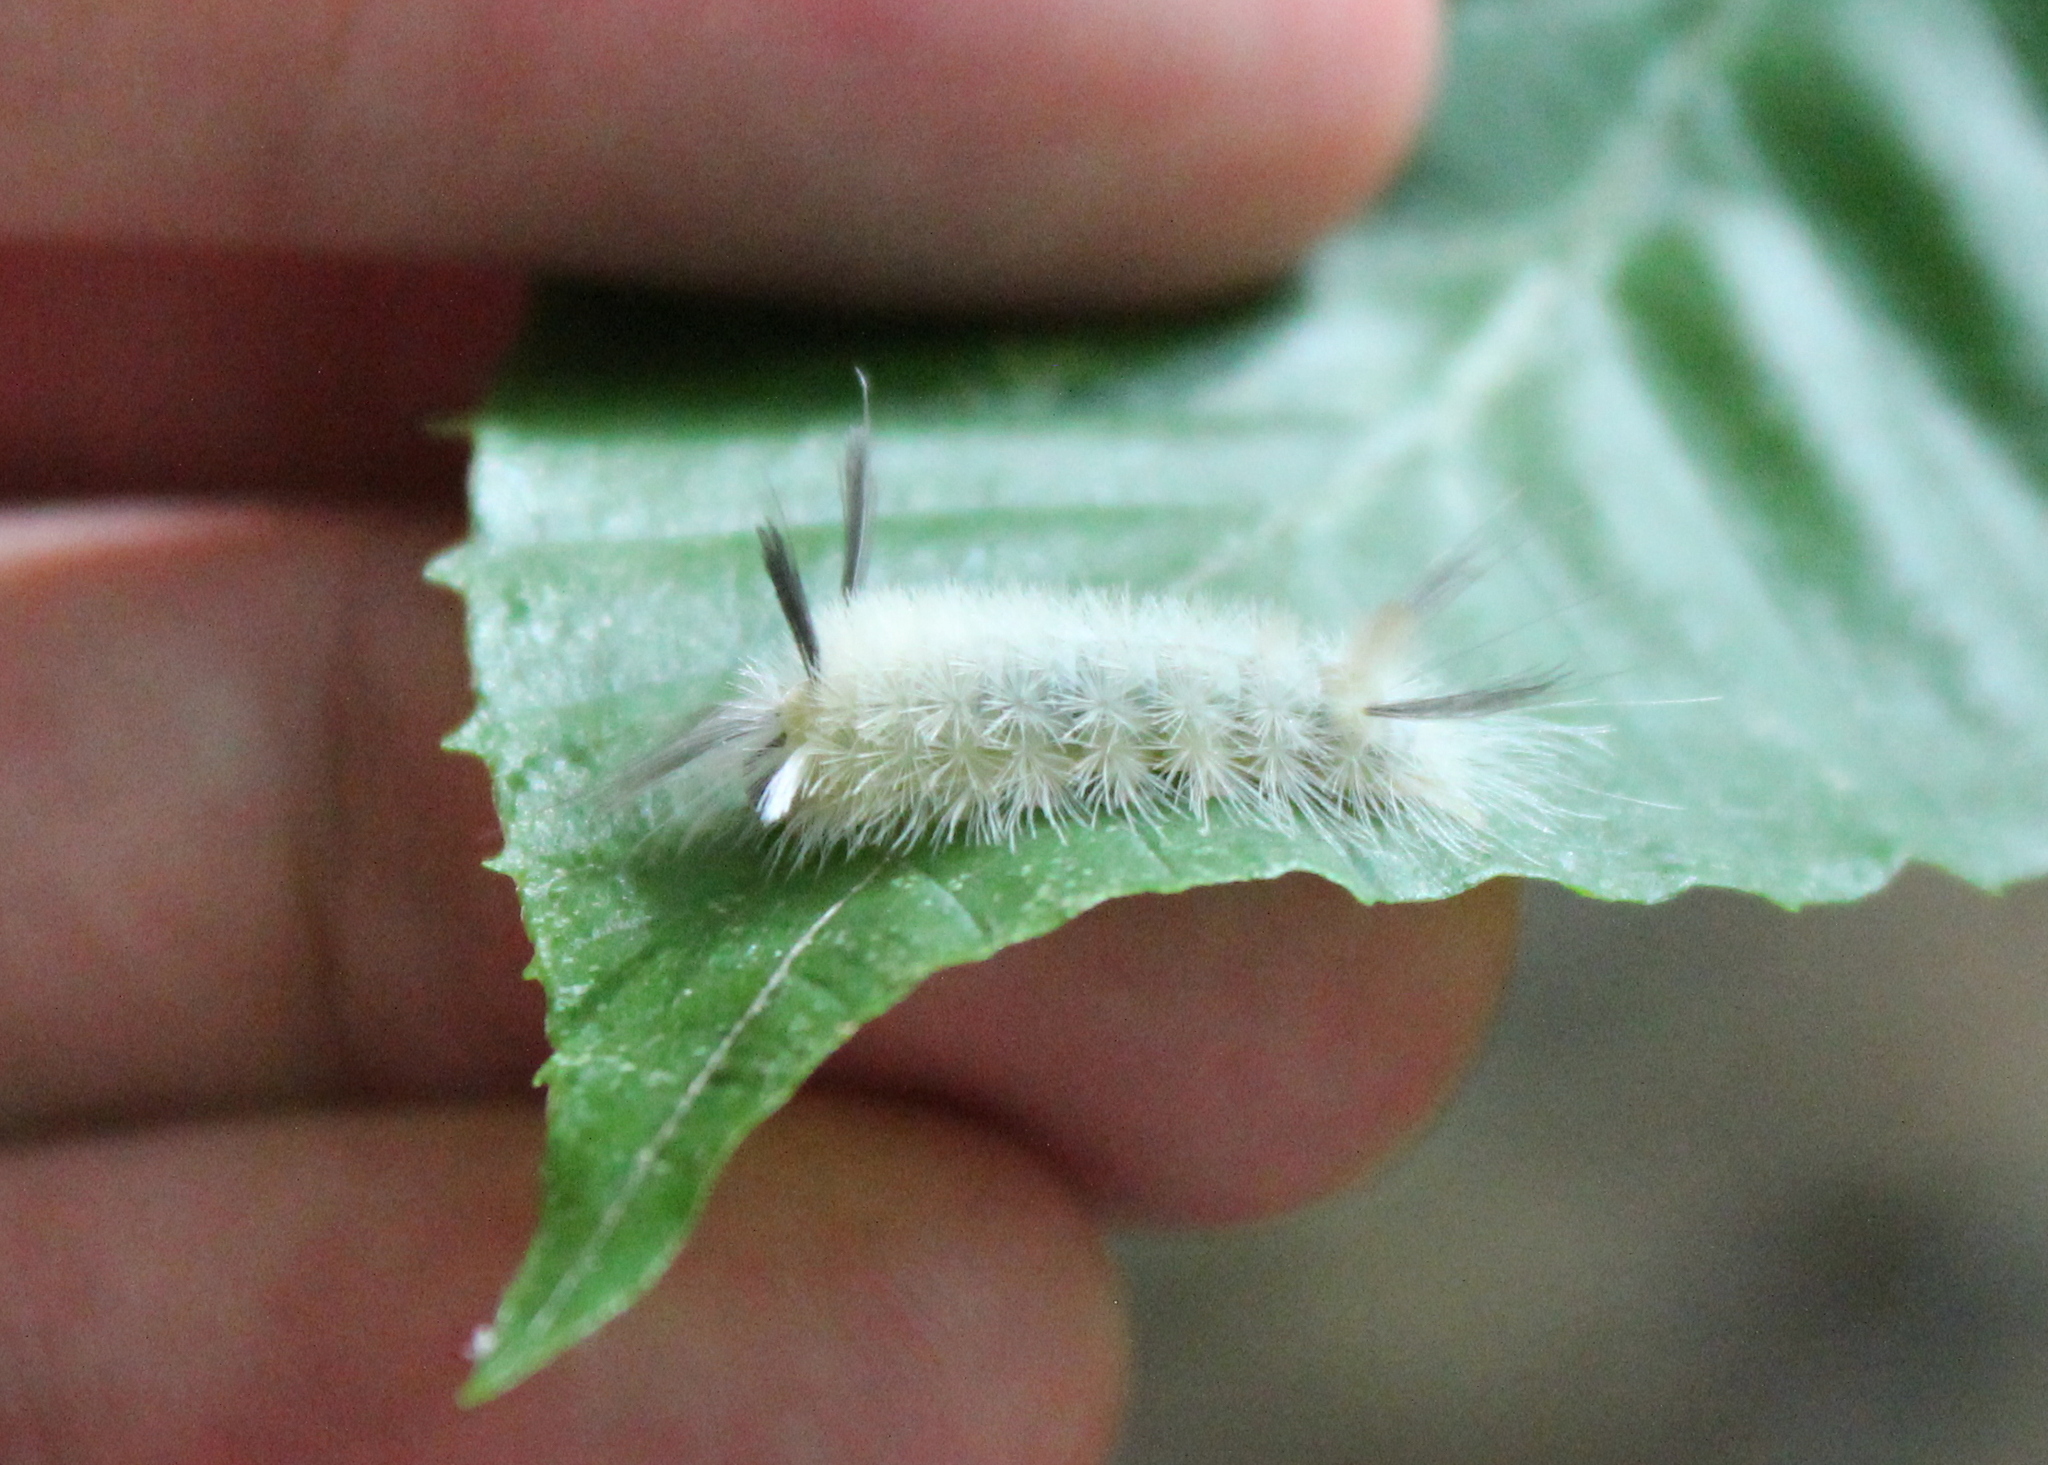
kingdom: Animalia
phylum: Arthropoda
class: Insecta
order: Lepidoptera
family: Erebidae
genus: Halysidota
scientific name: Halysidota tessellaris
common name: Banded tussock moth
